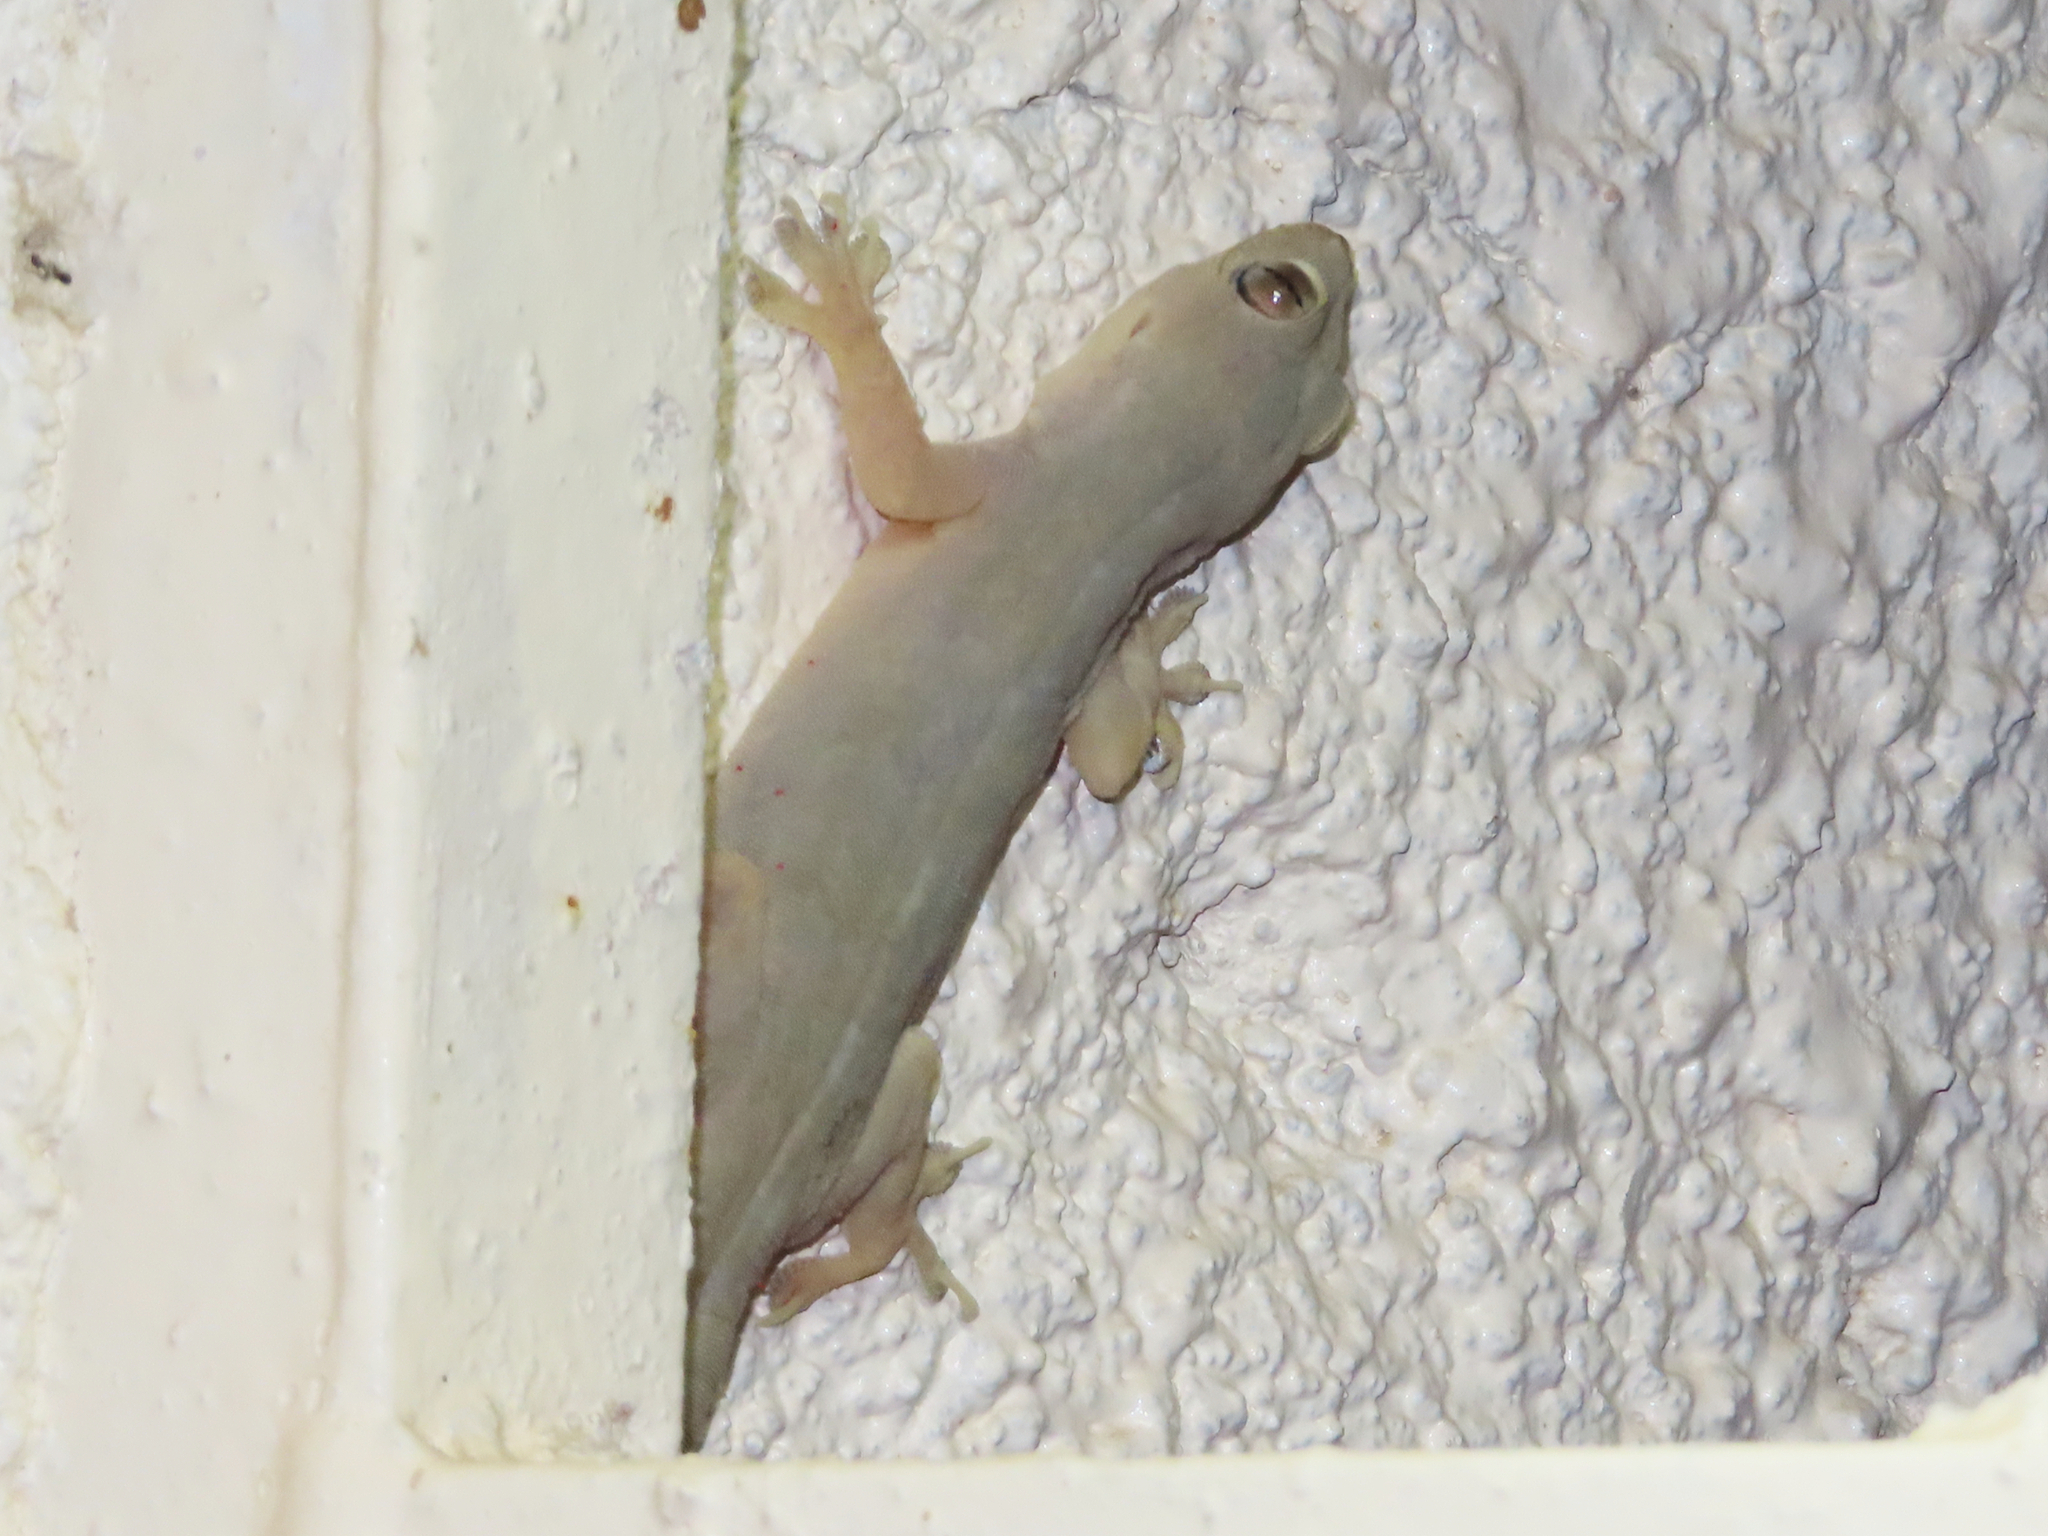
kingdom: Animalia
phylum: Chordata
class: Squamata
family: Gekkonidae
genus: Hemidactylus
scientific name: Hemidactylus flaviviridis
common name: Northern house gecko
